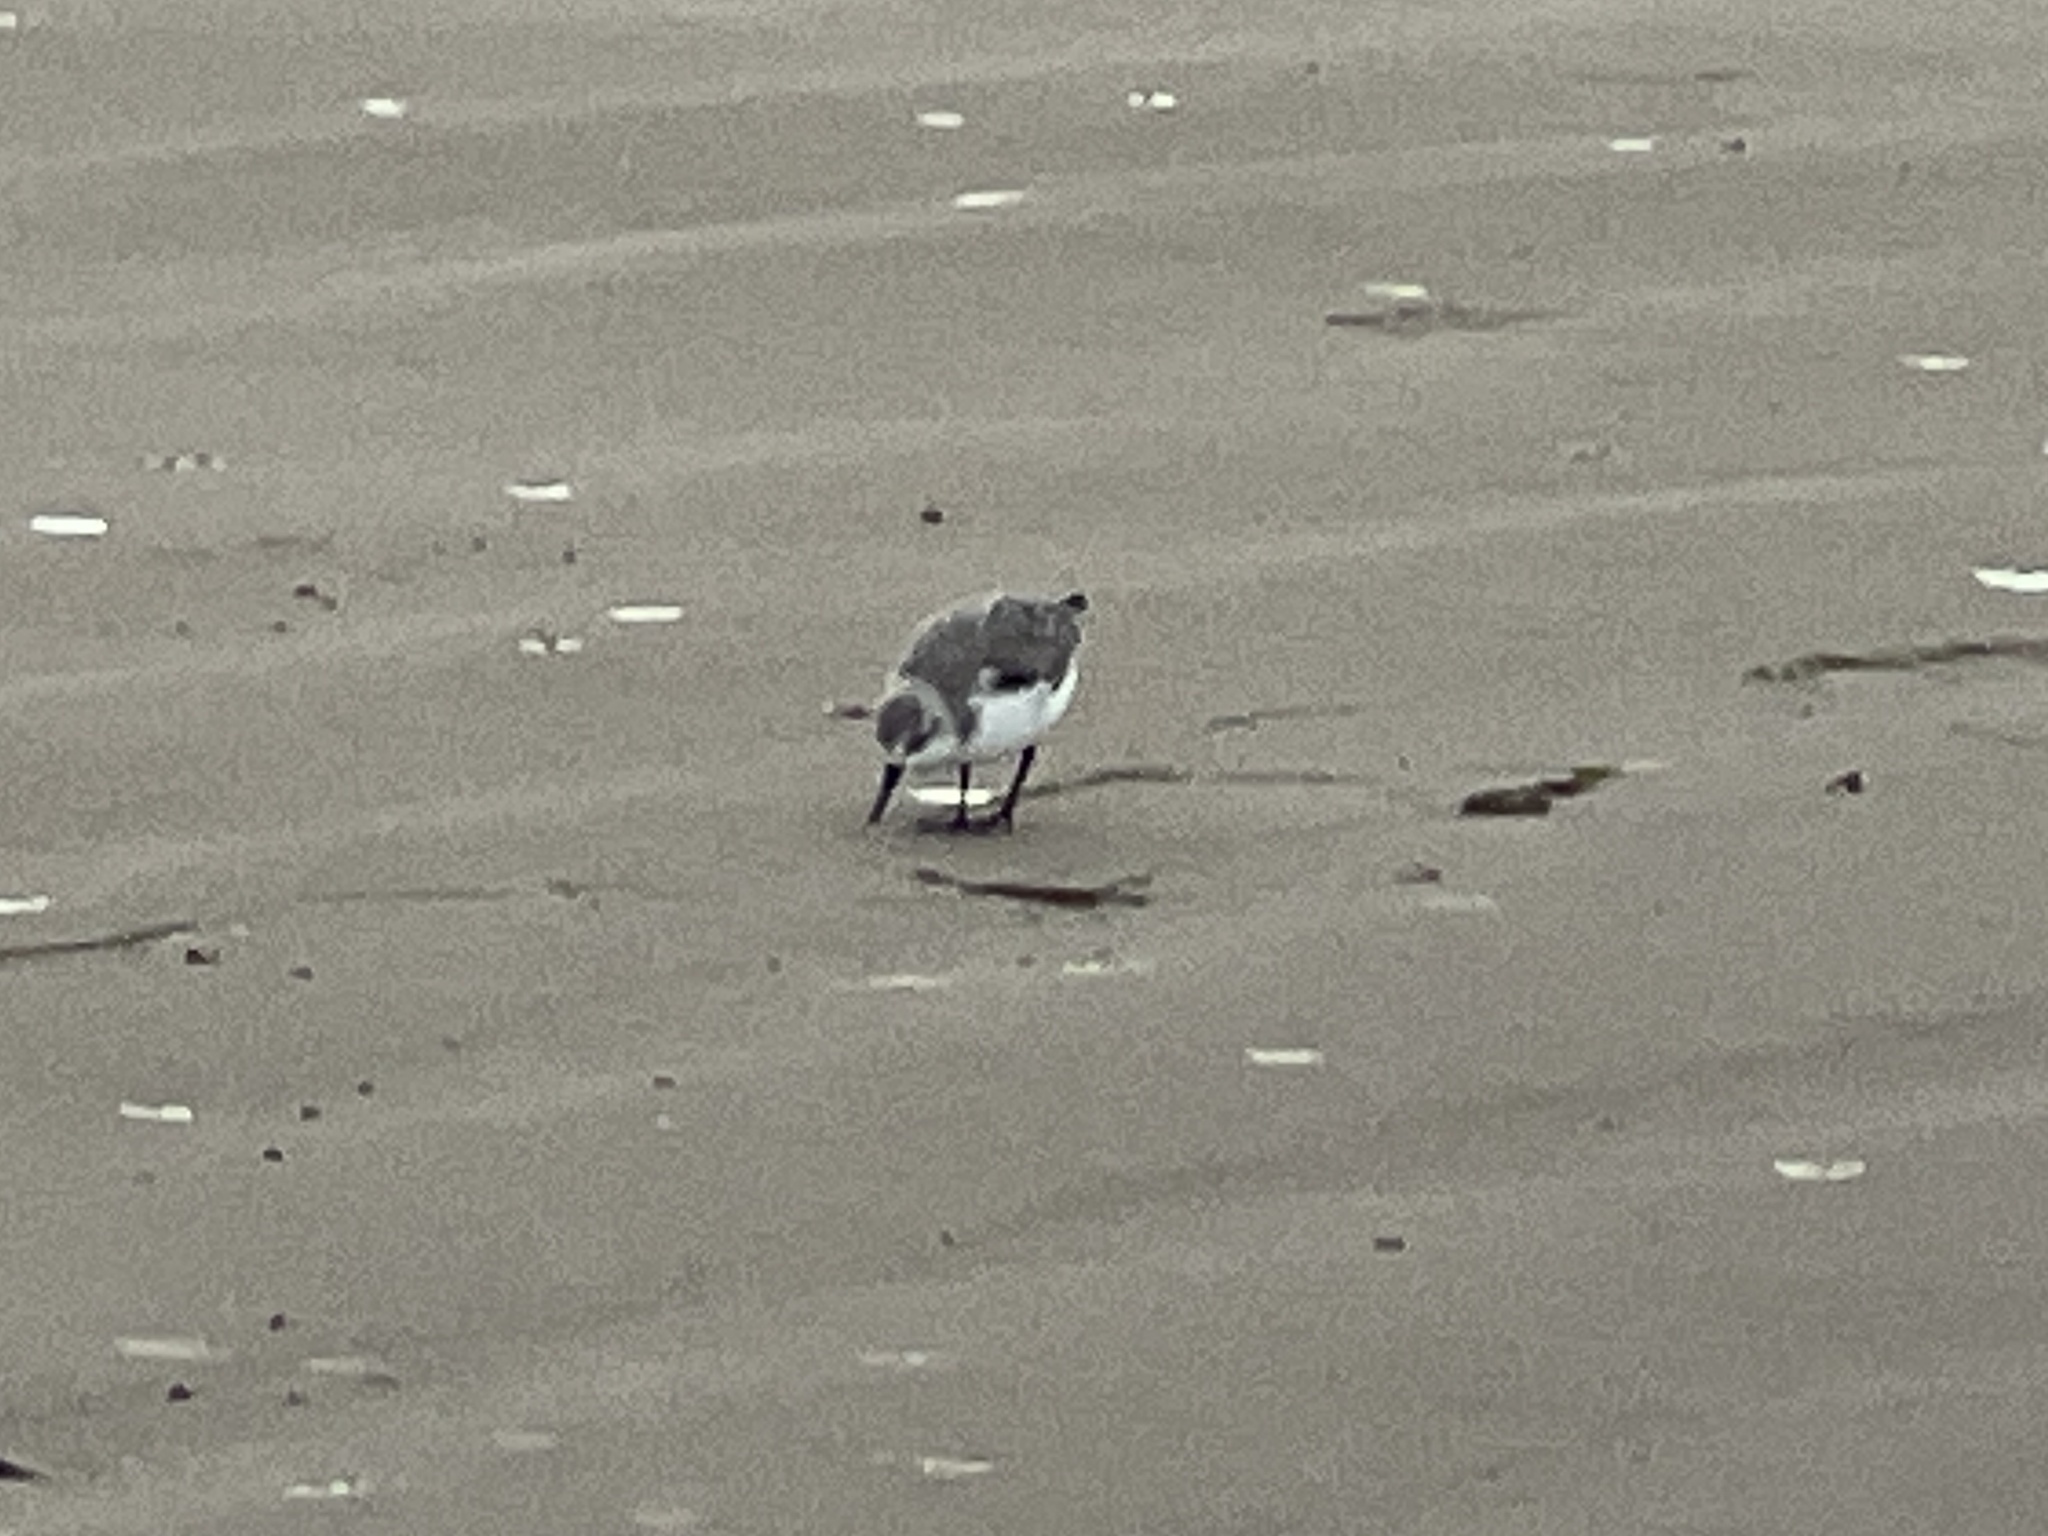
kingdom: Animalia
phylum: Chordata
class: Aves
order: Charadriiformes
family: Scolopacidae
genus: Calidris
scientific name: Calidris alba
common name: Sanderling
